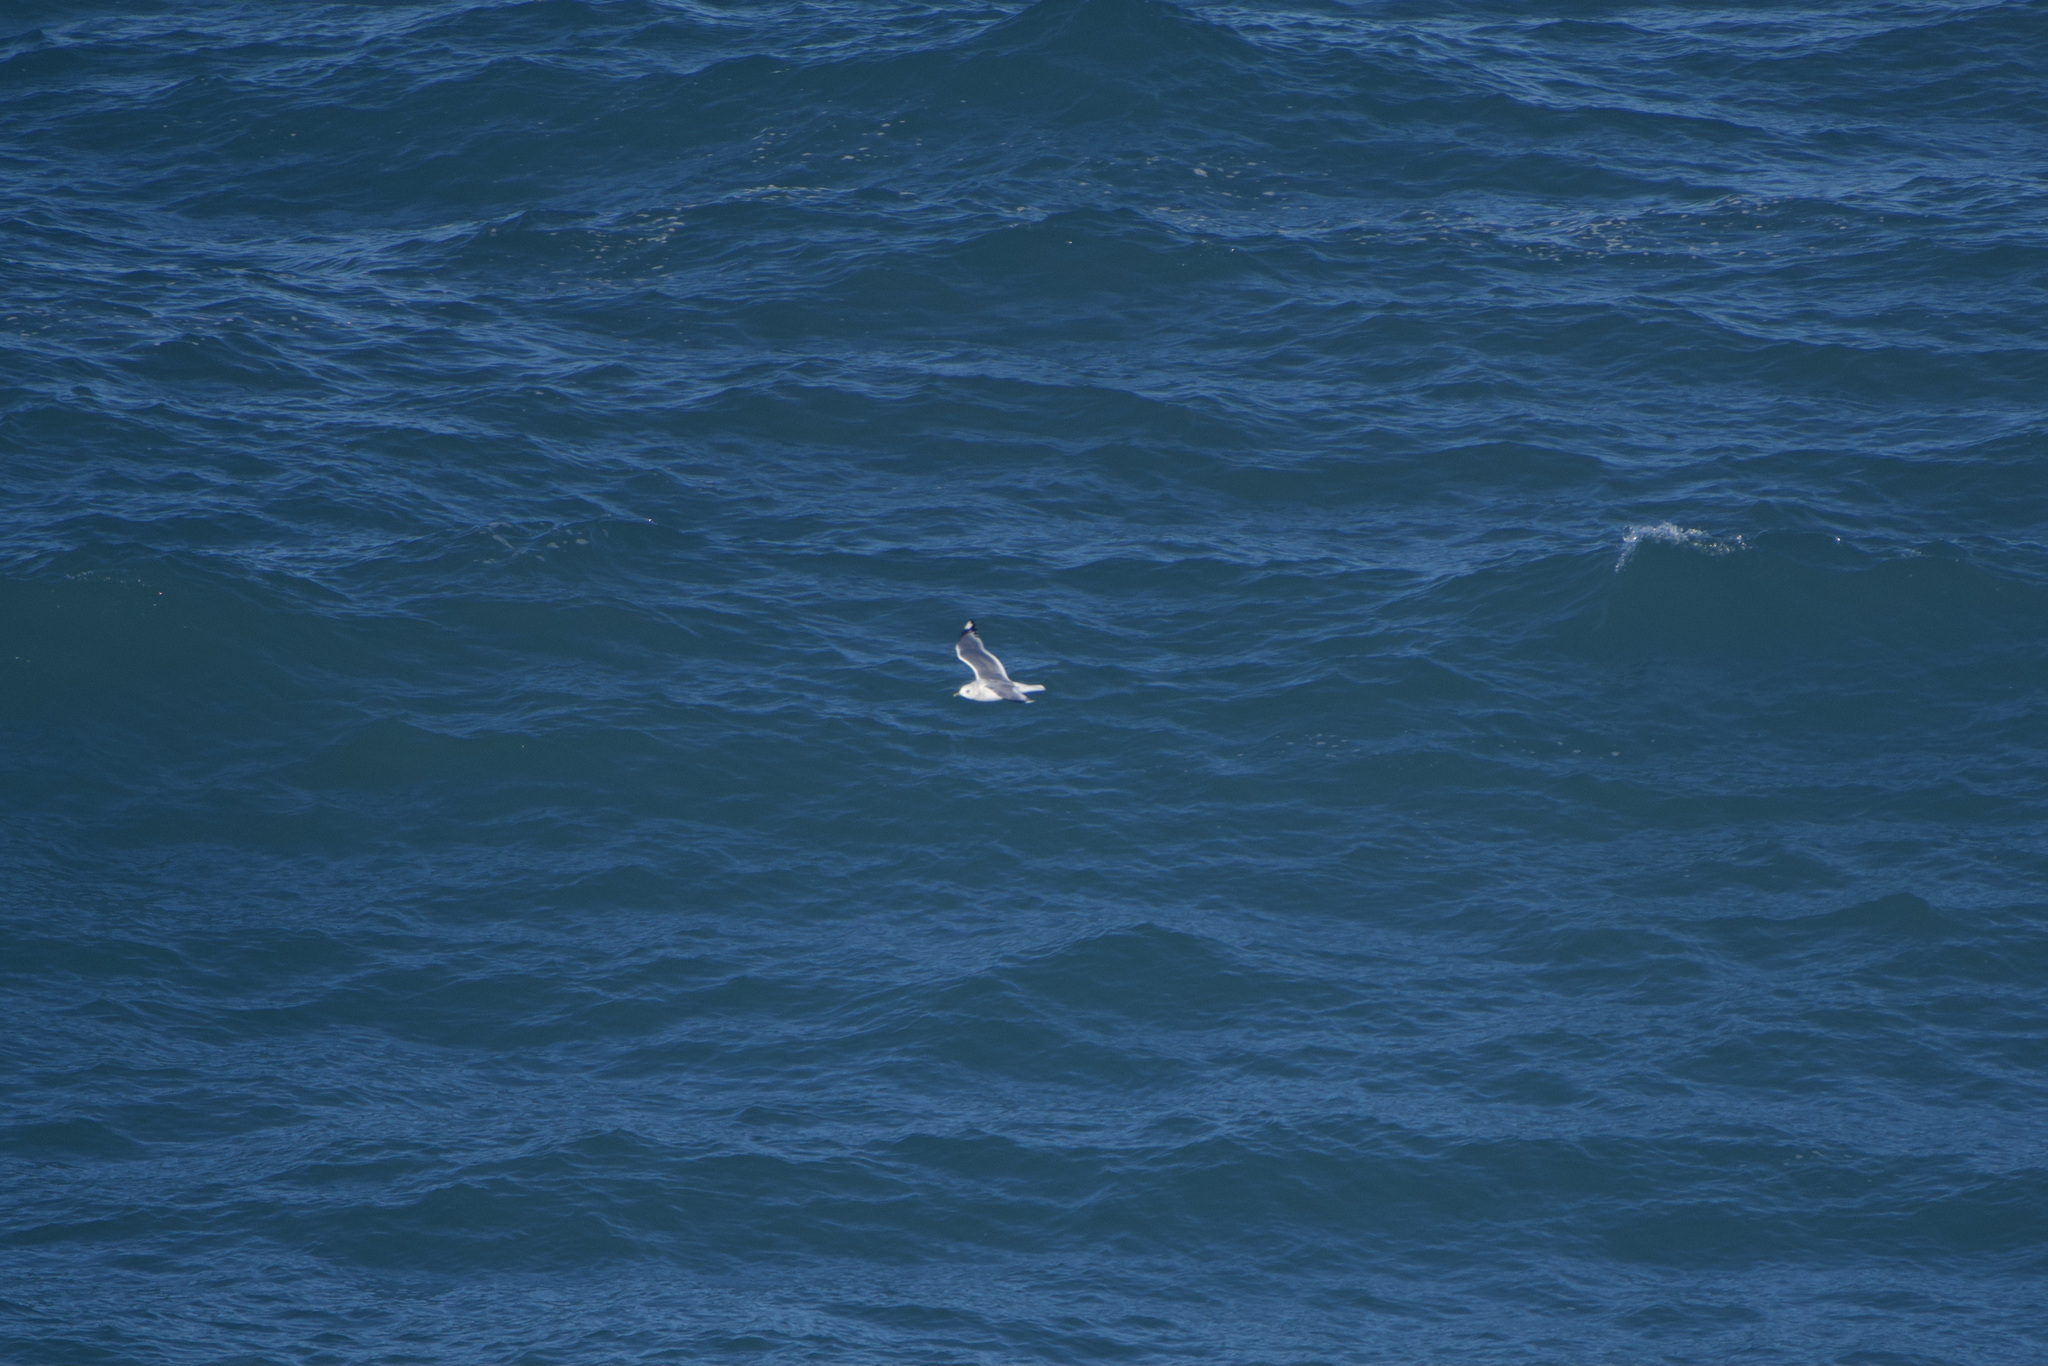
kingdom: Animalia
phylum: Chordata
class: Aves
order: Charadriiformes
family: Laridae
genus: Larus
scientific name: Larus brachyrhynchus
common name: Short-billed gull
